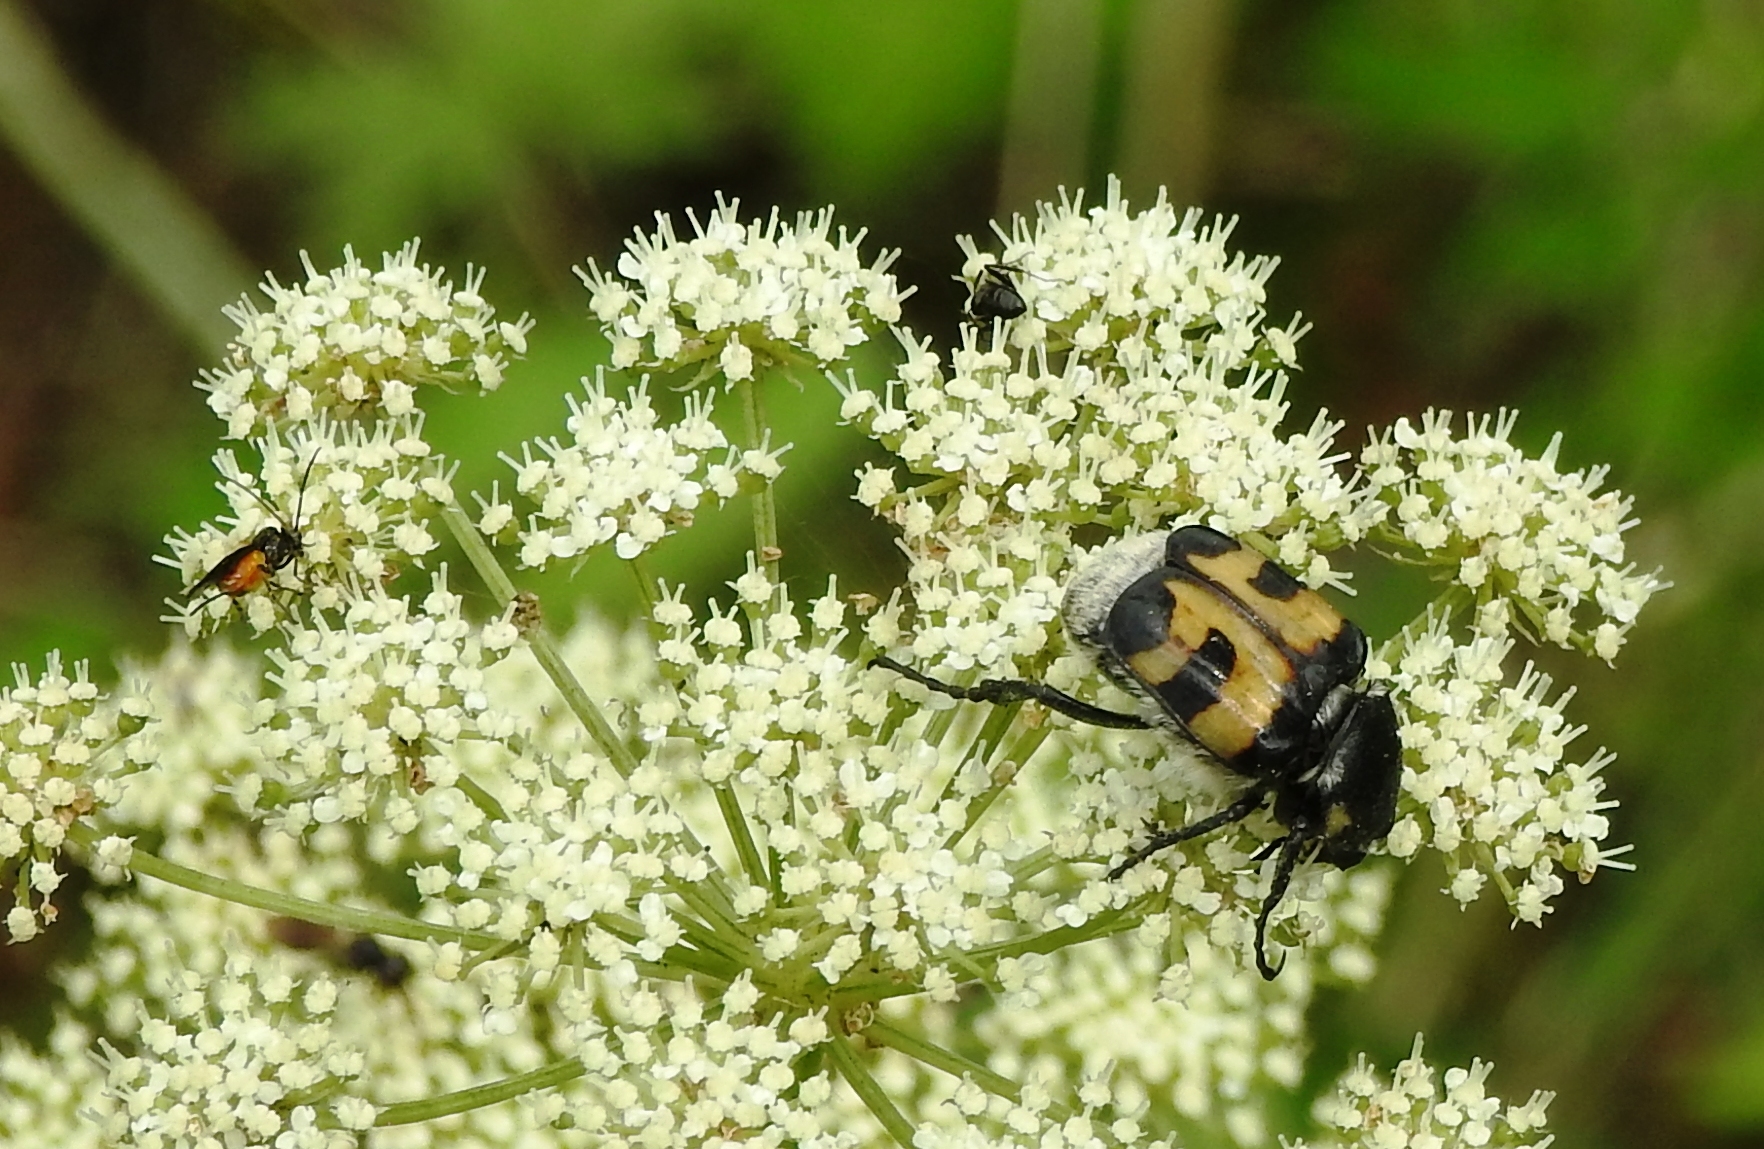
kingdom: Animalia
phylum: Arthropoda
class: Insecta
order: Coleoptera
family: Scarabaeidae
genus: Trichius
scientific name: Trichius fasciatus
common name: Bee beetle
